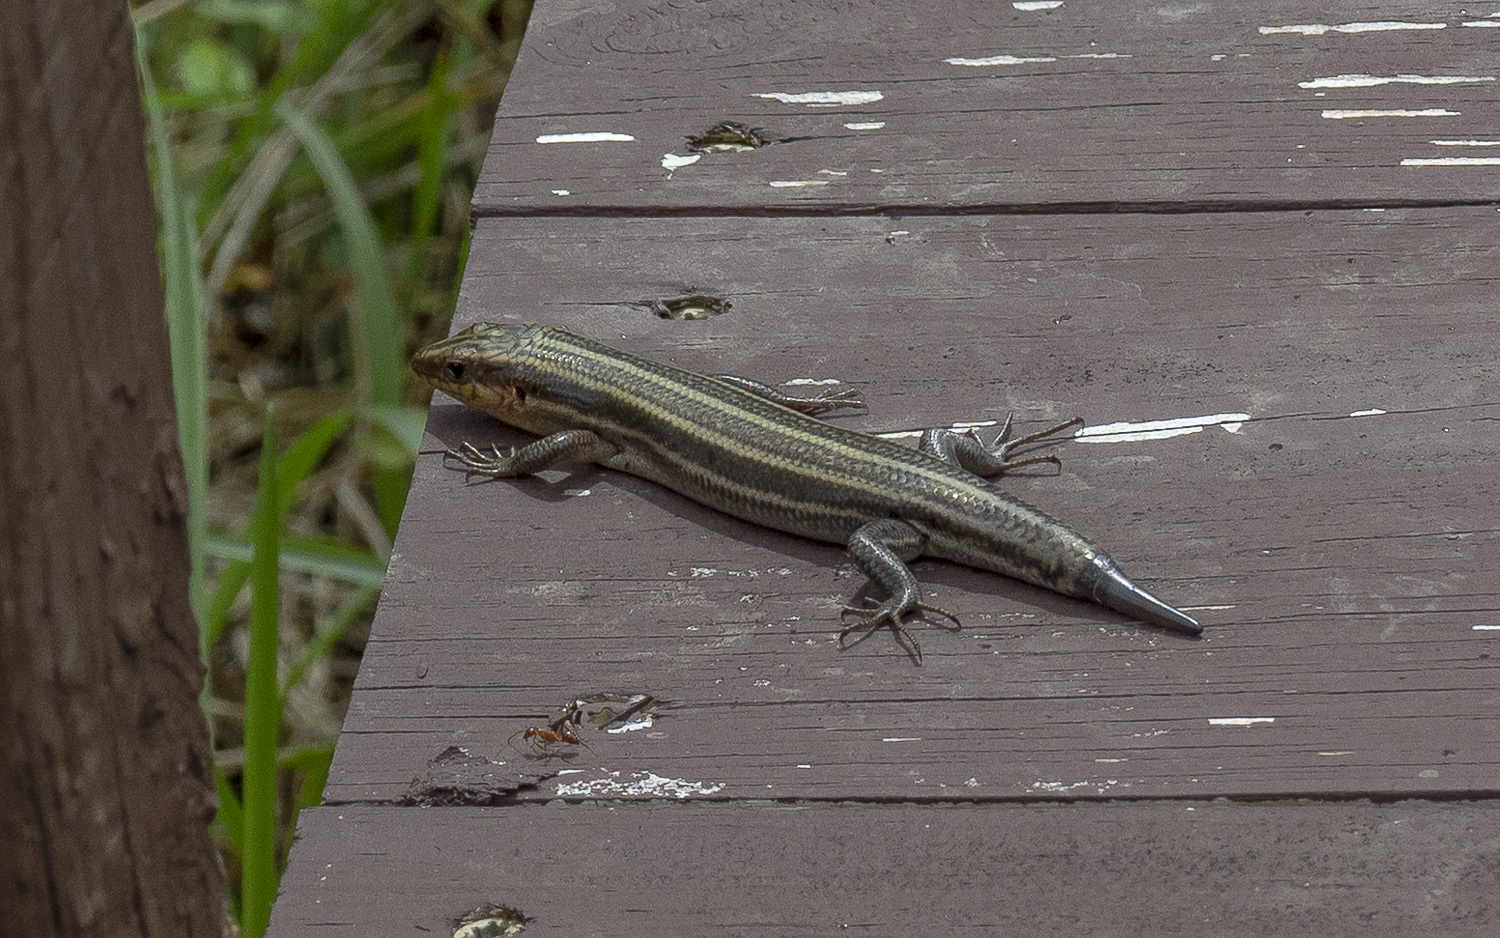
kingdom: Animalia
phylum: Chordata
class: Squamata
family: Scincidae
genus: Plestiodon
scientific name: Plestiodon fasciatus
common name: Five-lined skink
